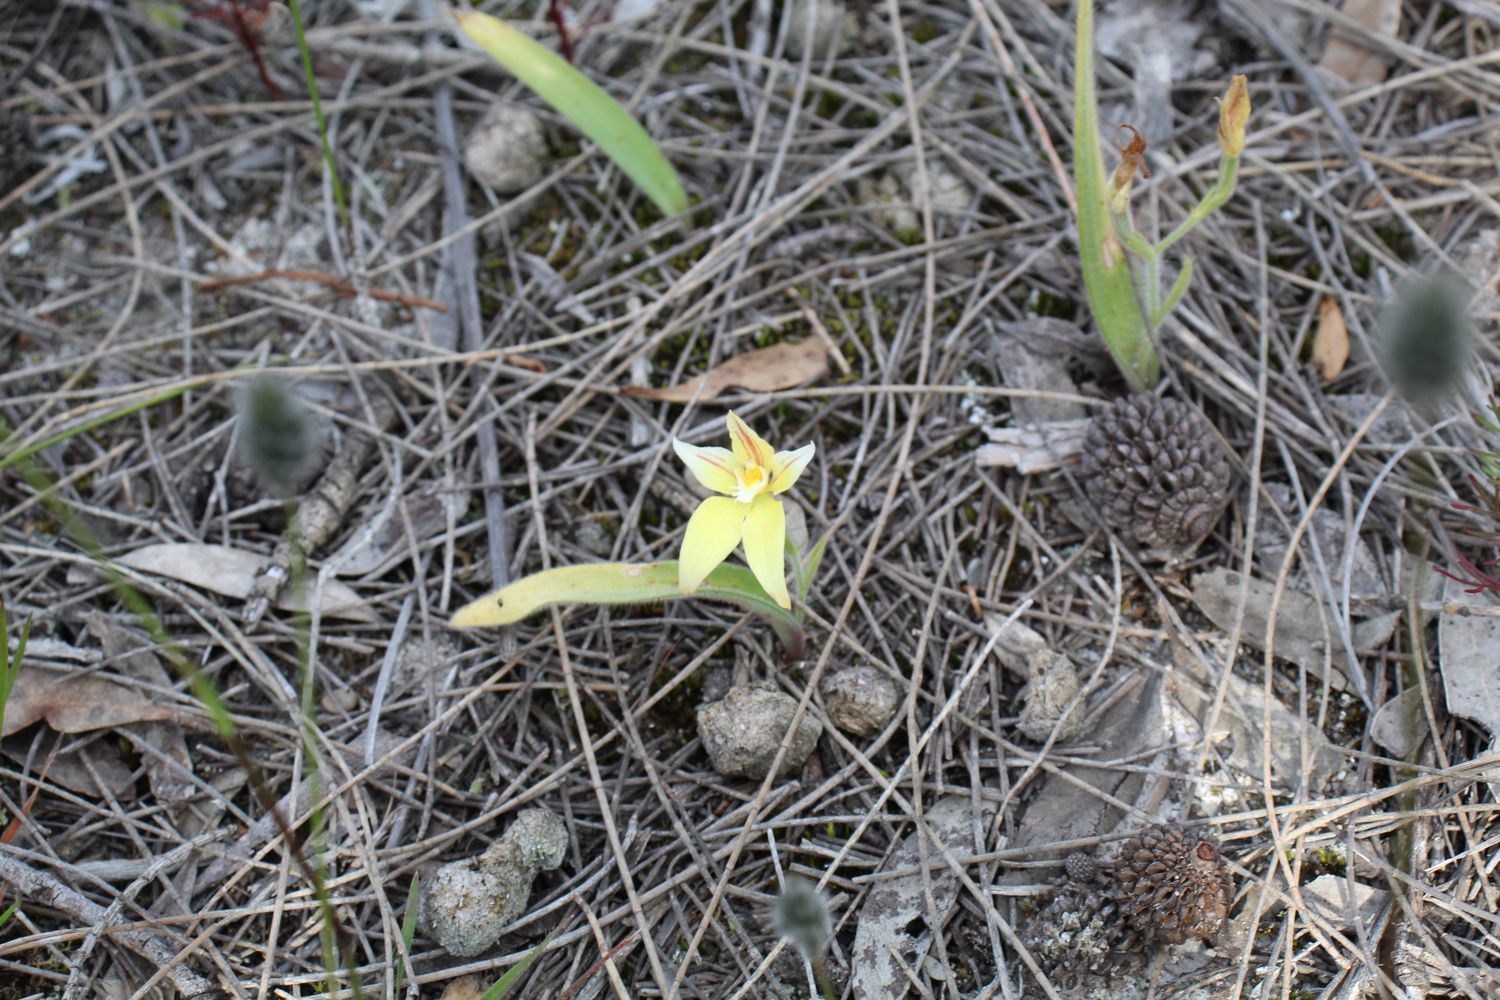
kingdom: Plantae
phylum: Tracheophyta
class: Liliopsida
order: Asparagales
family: Orchidaceae
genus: Caladenia
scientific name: Caladenia flava
